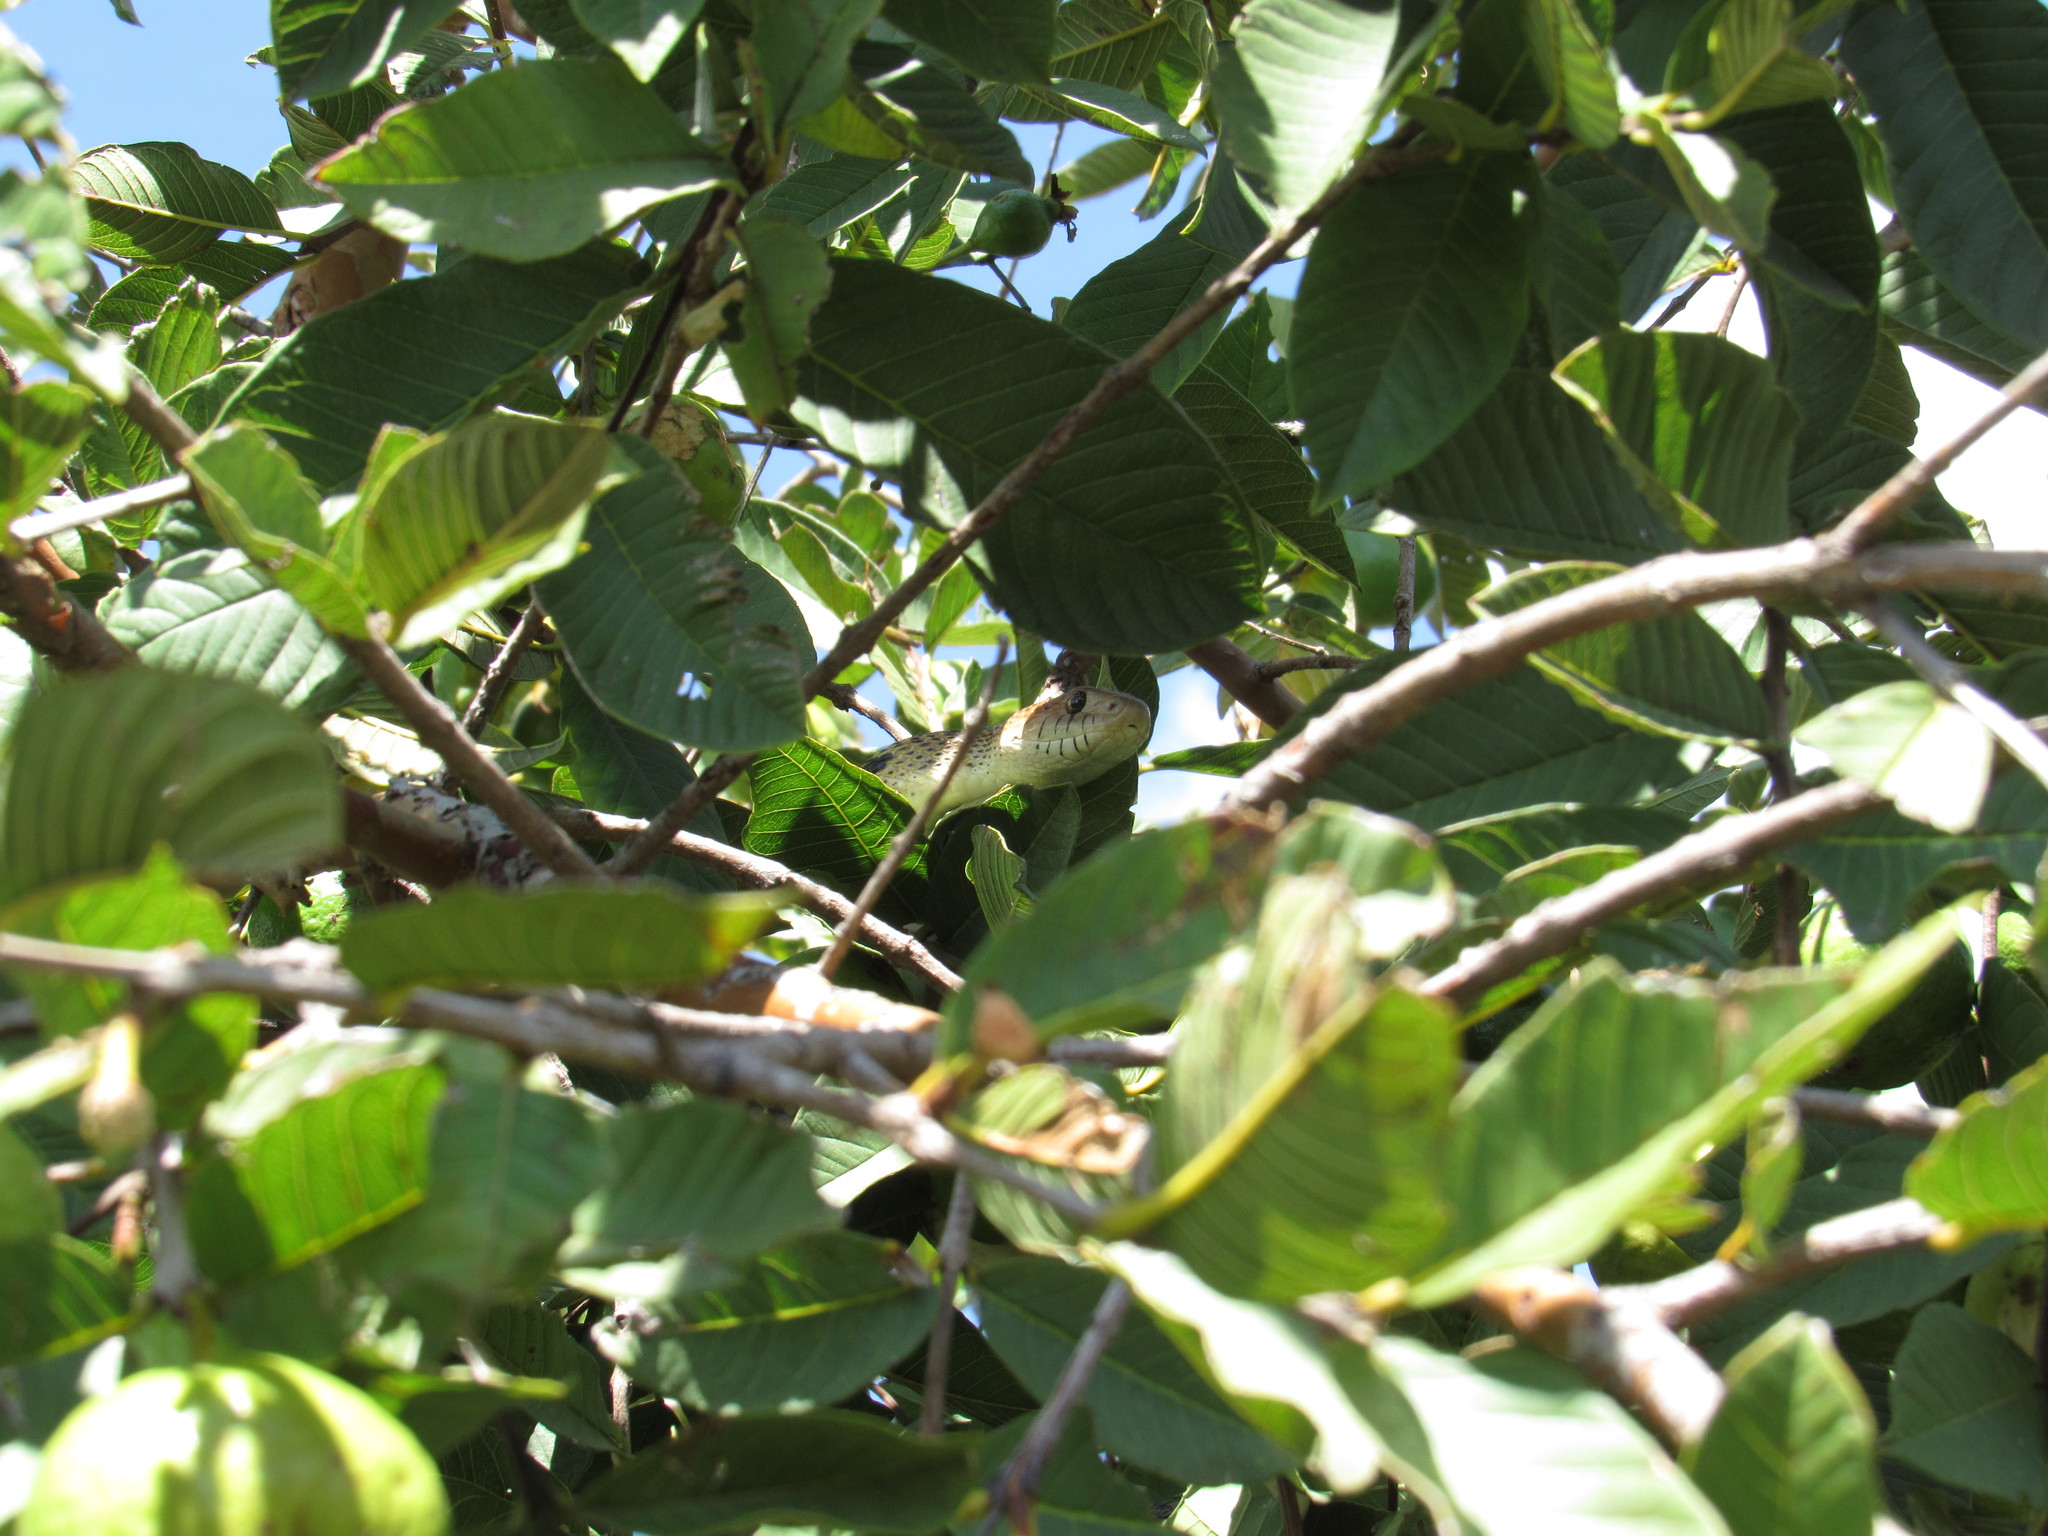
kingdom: Animalia
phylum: Chordata
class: Squamata
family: Colubridae
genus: Pituophis
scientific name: Pituophis deppei
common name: Mexican bull snake
